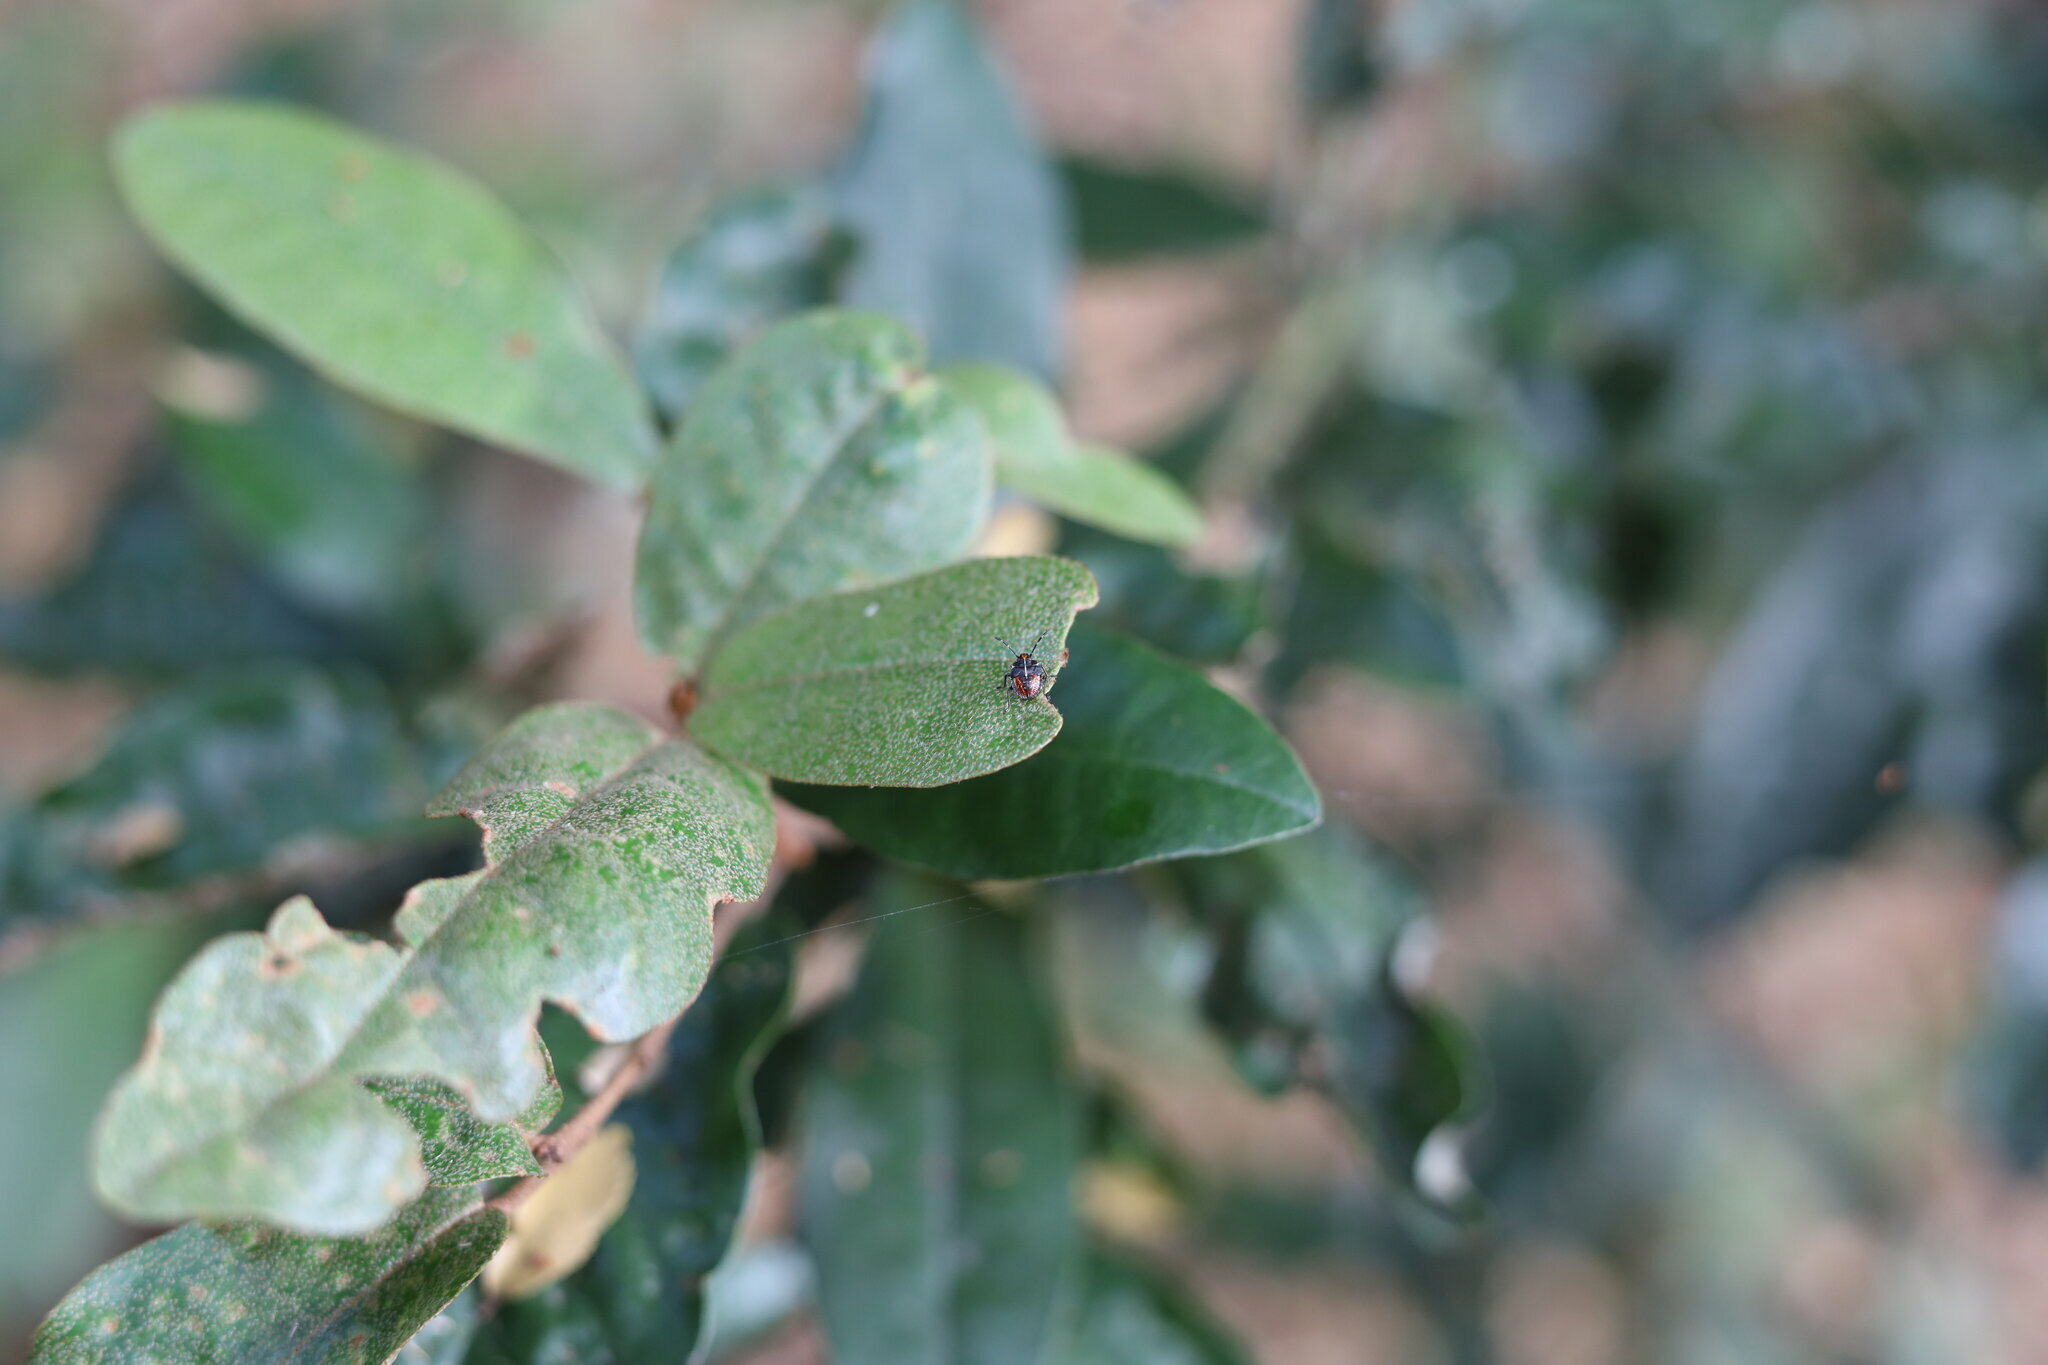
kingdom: Animalia
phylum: Arthropoda
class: Insecta
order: Hemiptera
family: Acanthosomatidae
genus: Sinopla
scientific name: Sinopla perpunctatus
